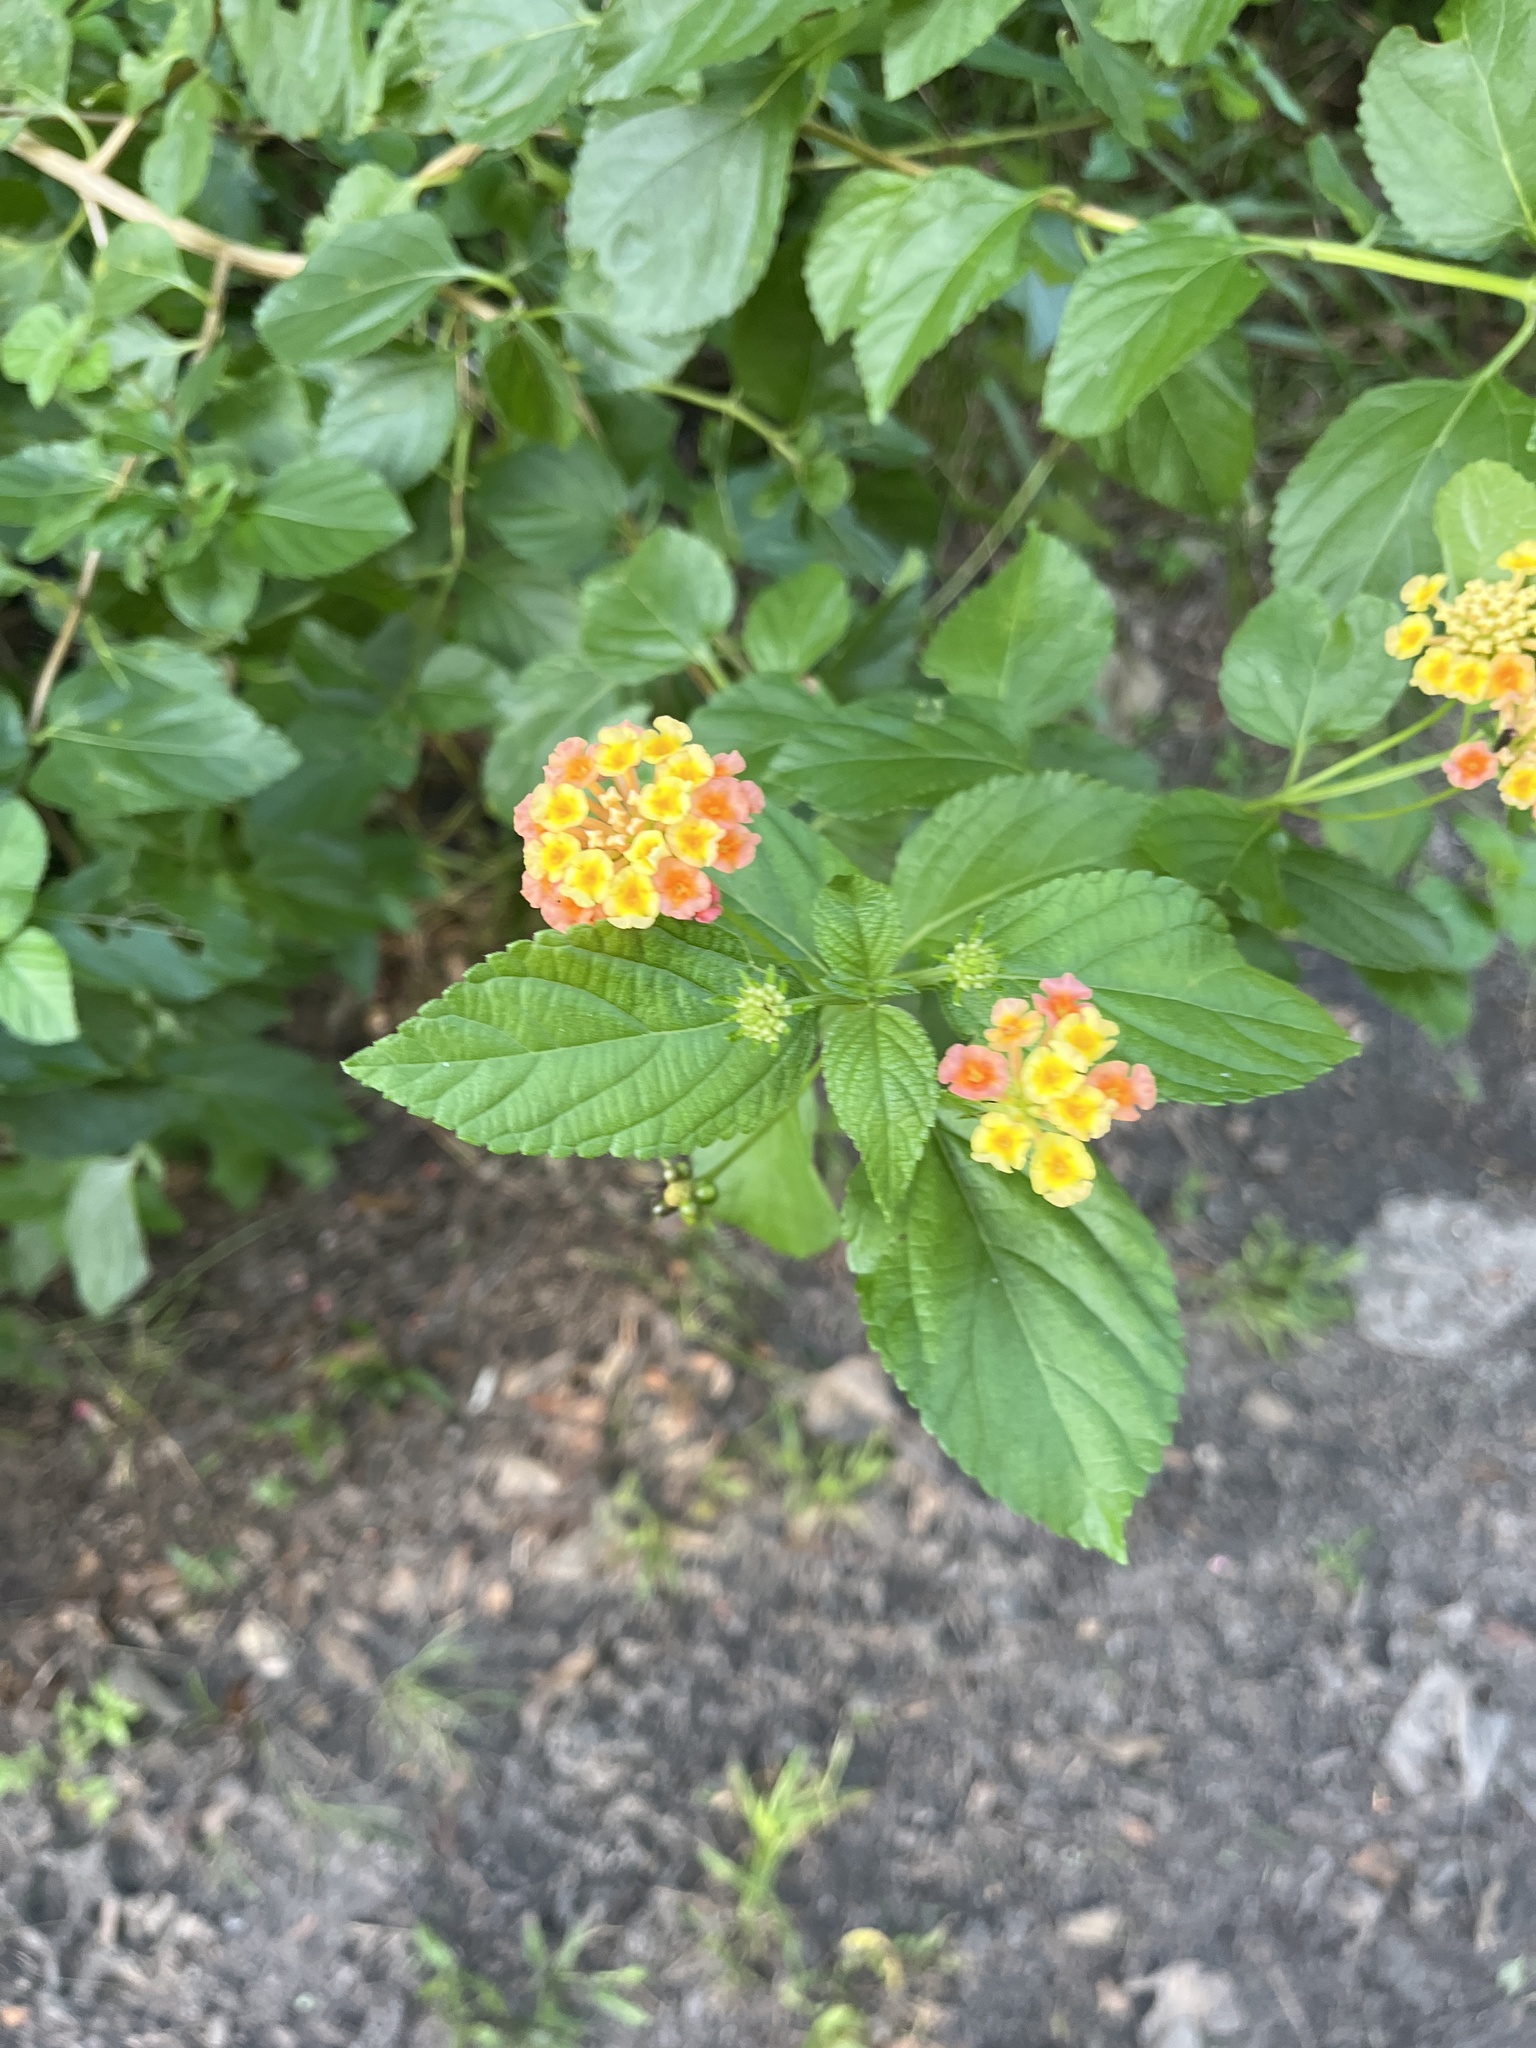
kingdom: Plantae
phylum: Tracheophyta
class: Magnoliopsida
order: Lamiales
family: Verbenaceae
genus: Lantana
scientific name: Lantana strigocamara
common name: Lantana
